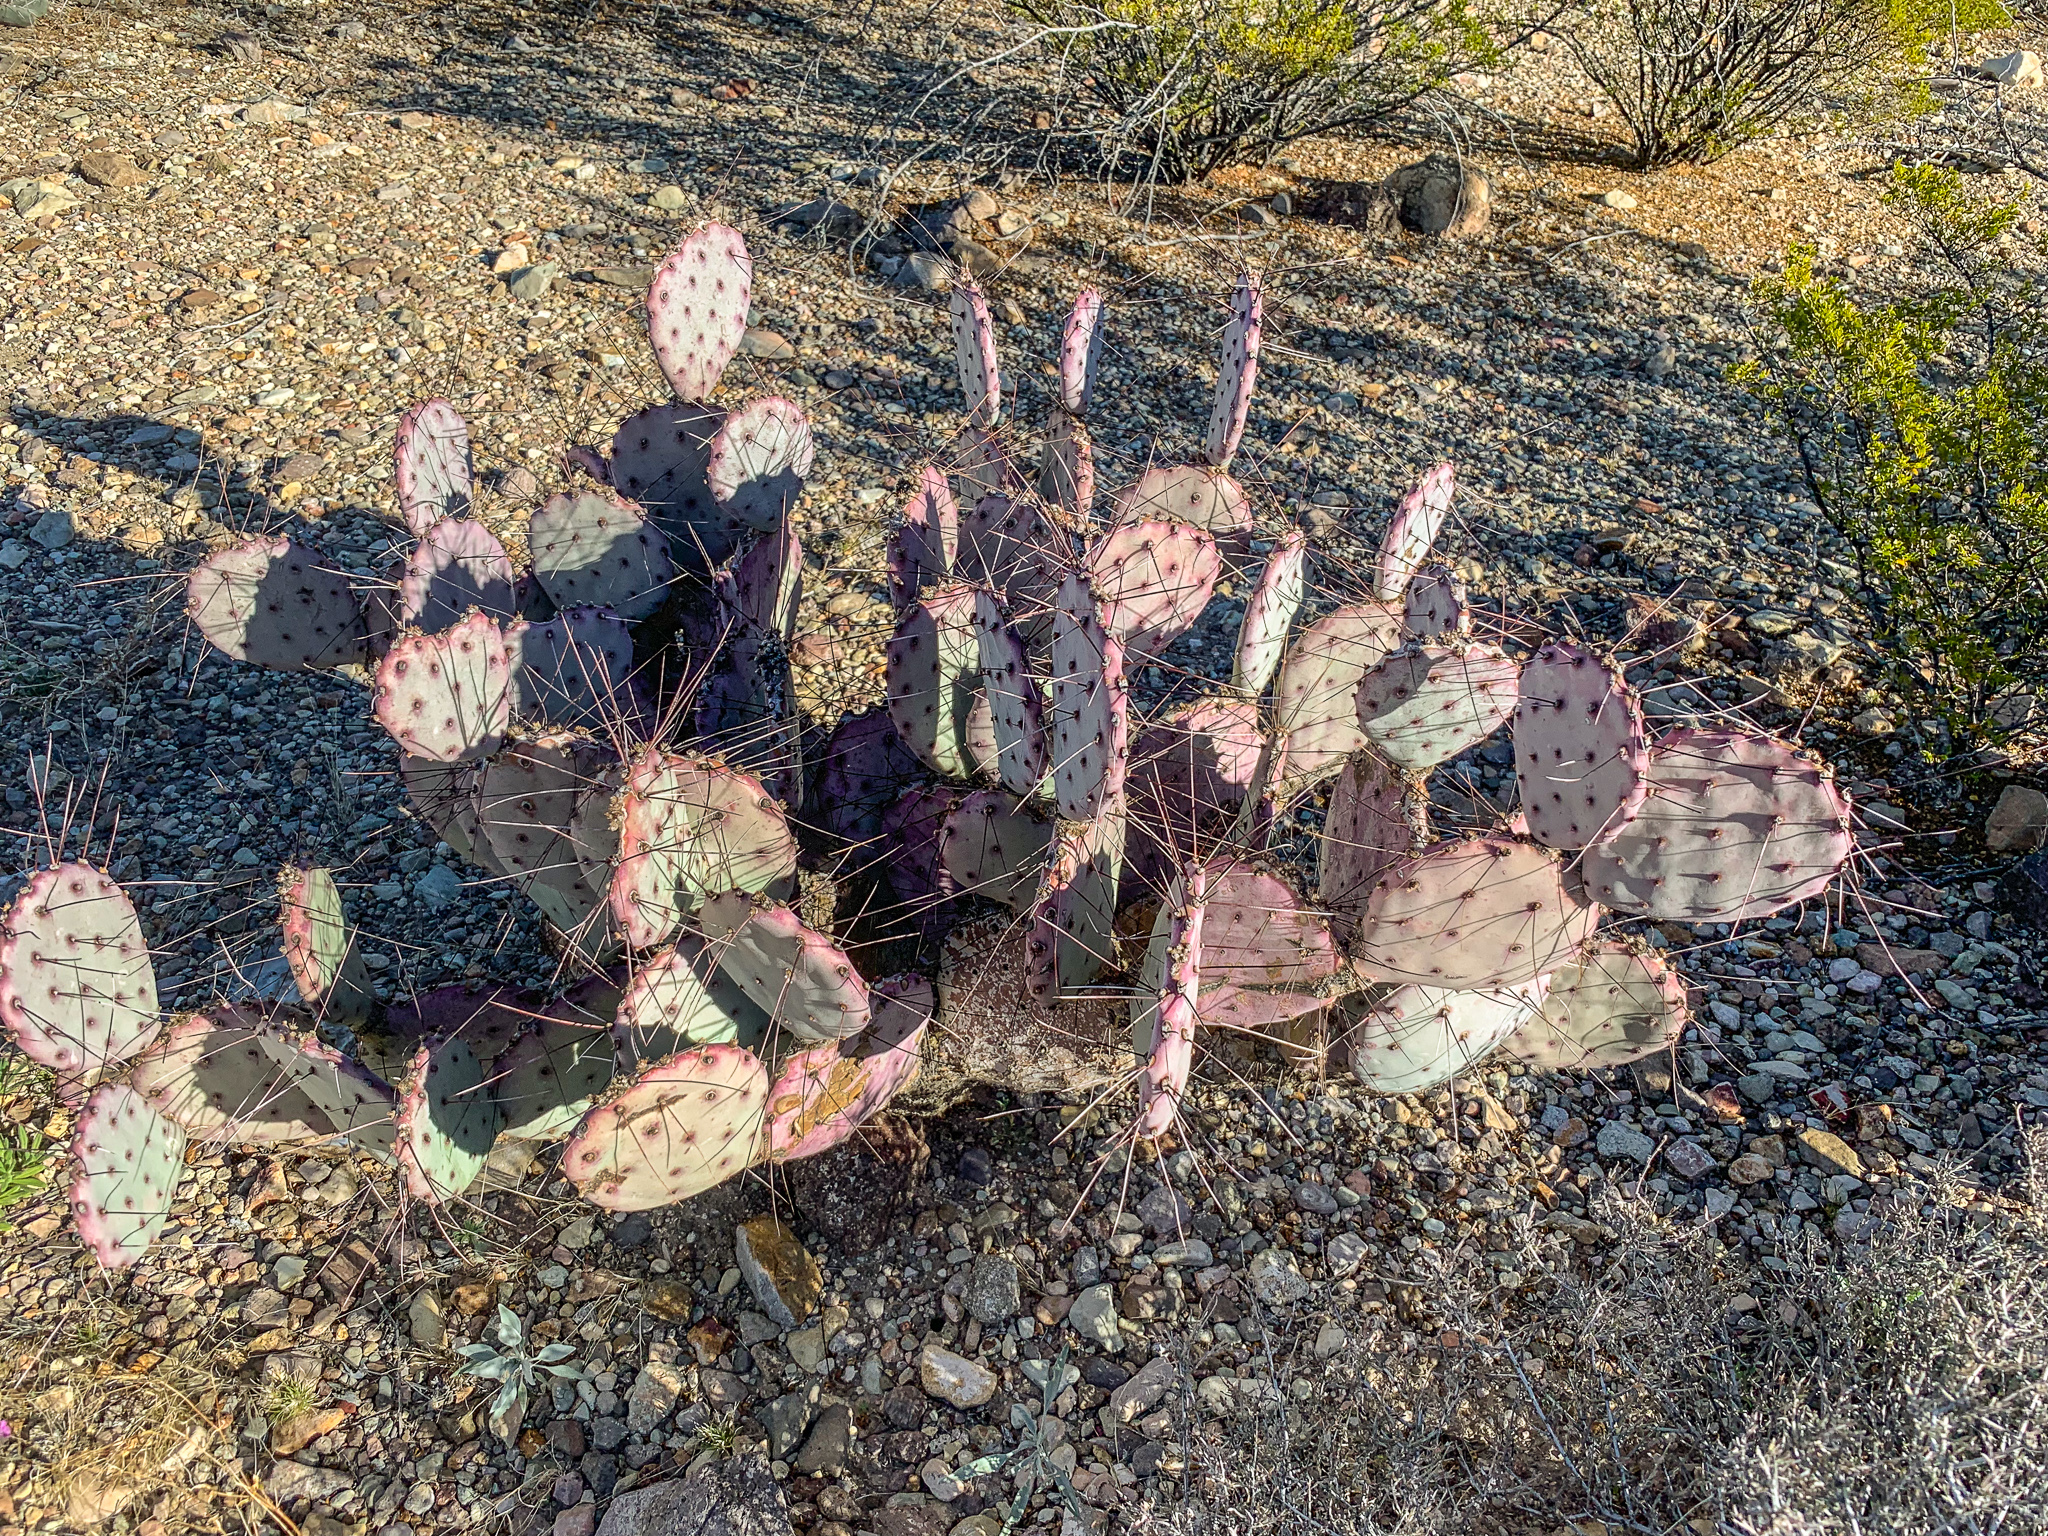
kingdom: Plantae
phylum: Tracheophyta
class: Magnoliopsida
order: Caryophyllales
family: Cactaceae
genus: Opuntia
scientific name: Opuntia phaeacantha
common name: New mexico prickly-pear
